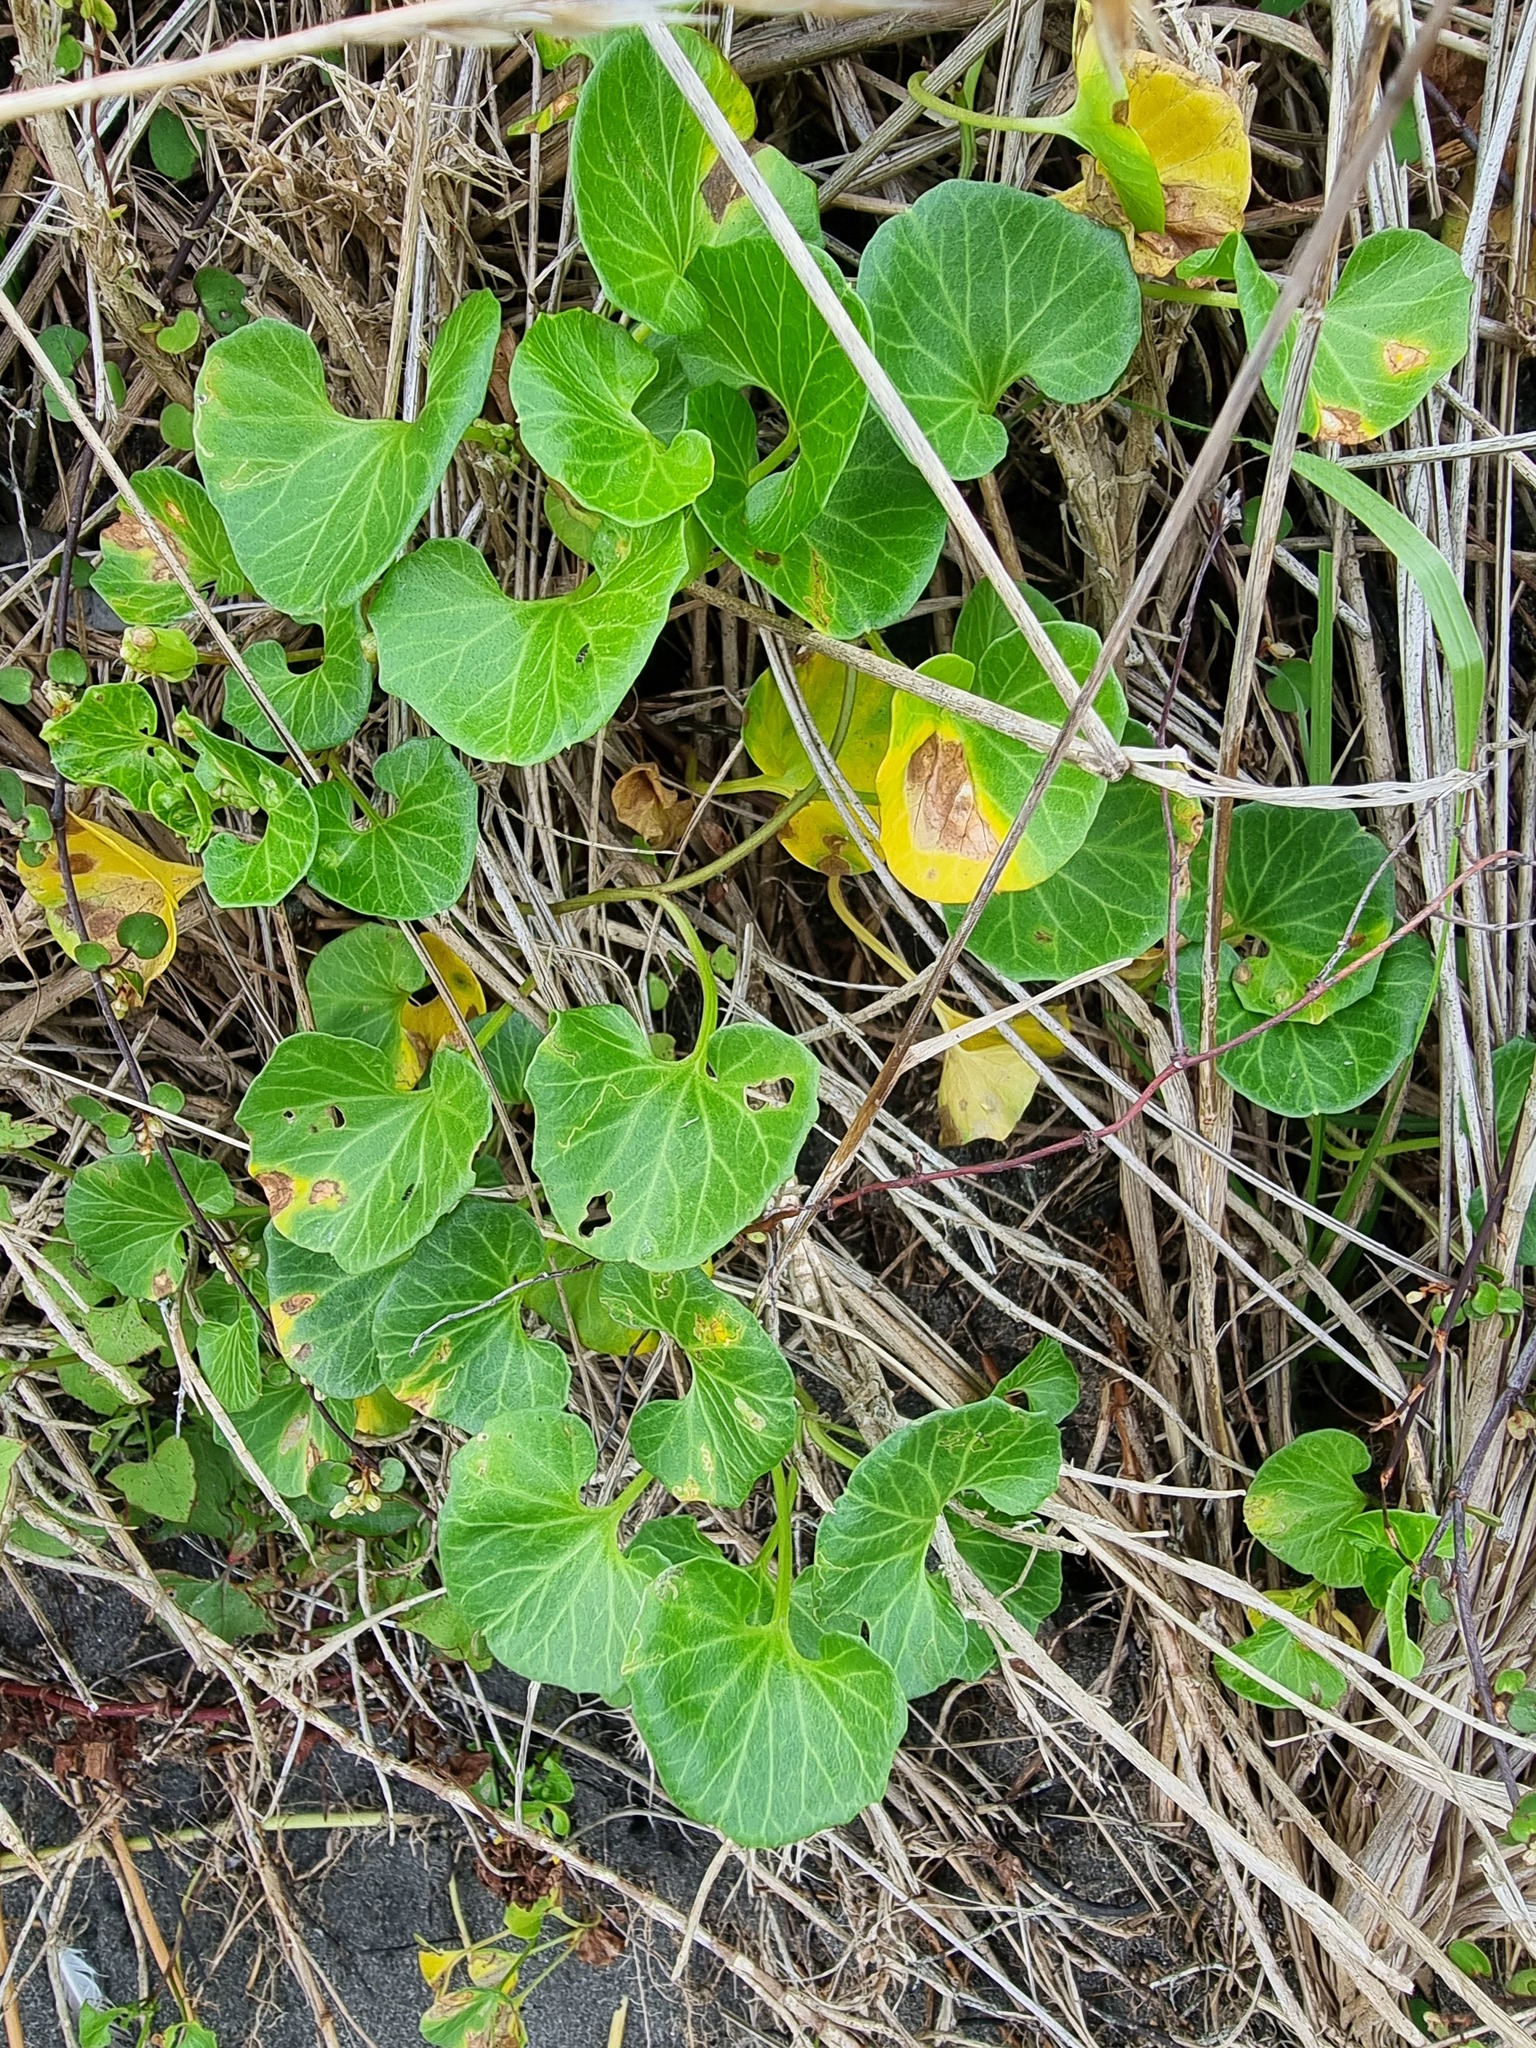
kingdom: Plantae
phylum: Tracheophyta
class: Magnoliopsida
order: Solanales
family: Convolvulaceae
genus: Calystegia
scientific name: Calystegia soldanella
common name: Sea bindweed
